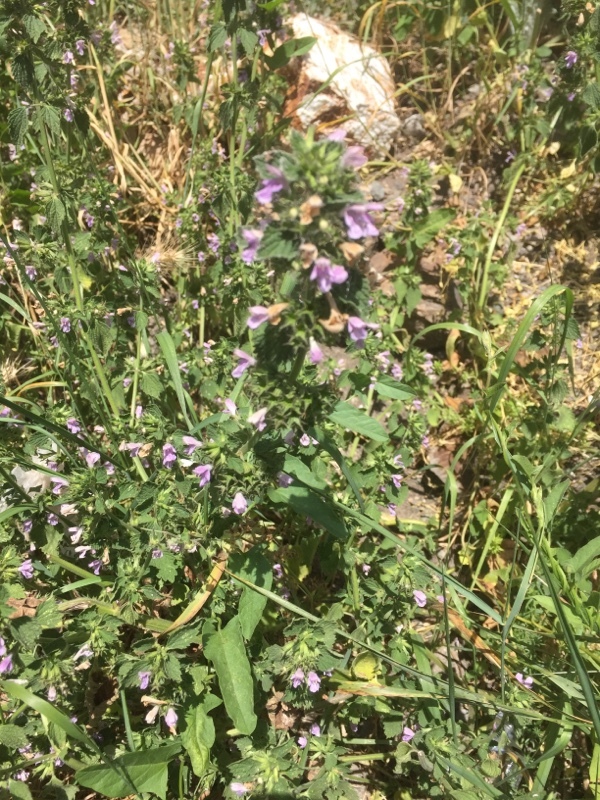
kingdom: Plantae
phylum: Tracheophyta
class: Magnoliopsida
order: Lamiales
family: Lamiaceae
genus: Ballota
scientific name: Ballota nigra
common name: Black horehound
